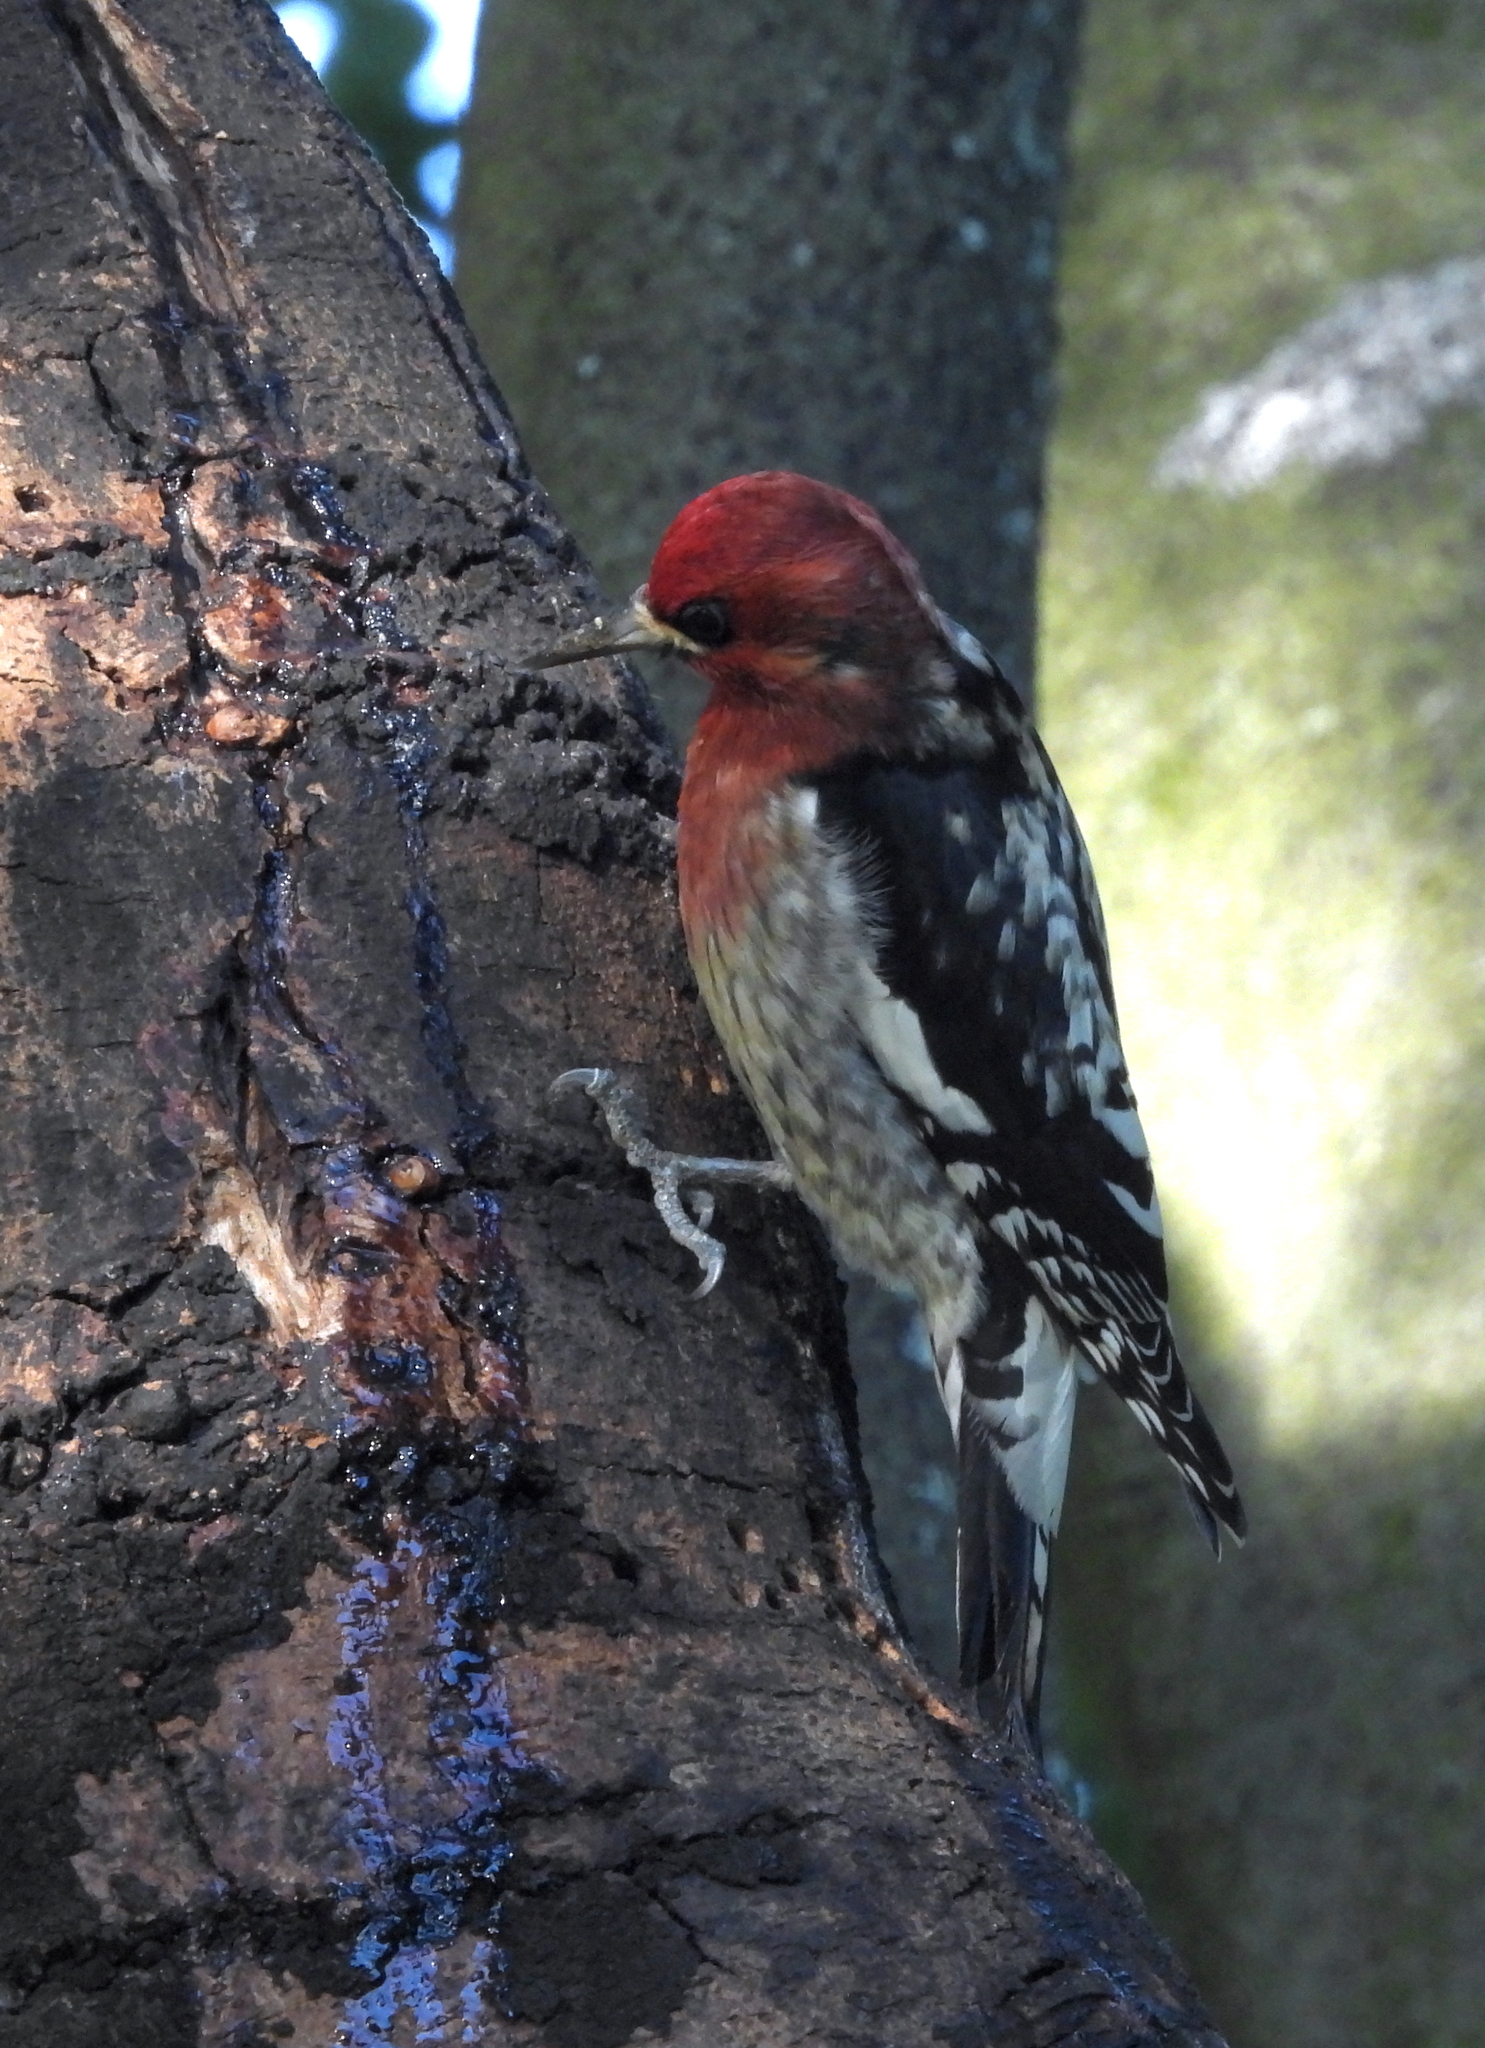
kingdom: Animalia
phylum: Chordata
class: Aves
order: Piciformes
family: Picidae
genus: Sphyrapicus
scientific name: Sphyrapicus ruber
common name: Red-breasted sapsucker
